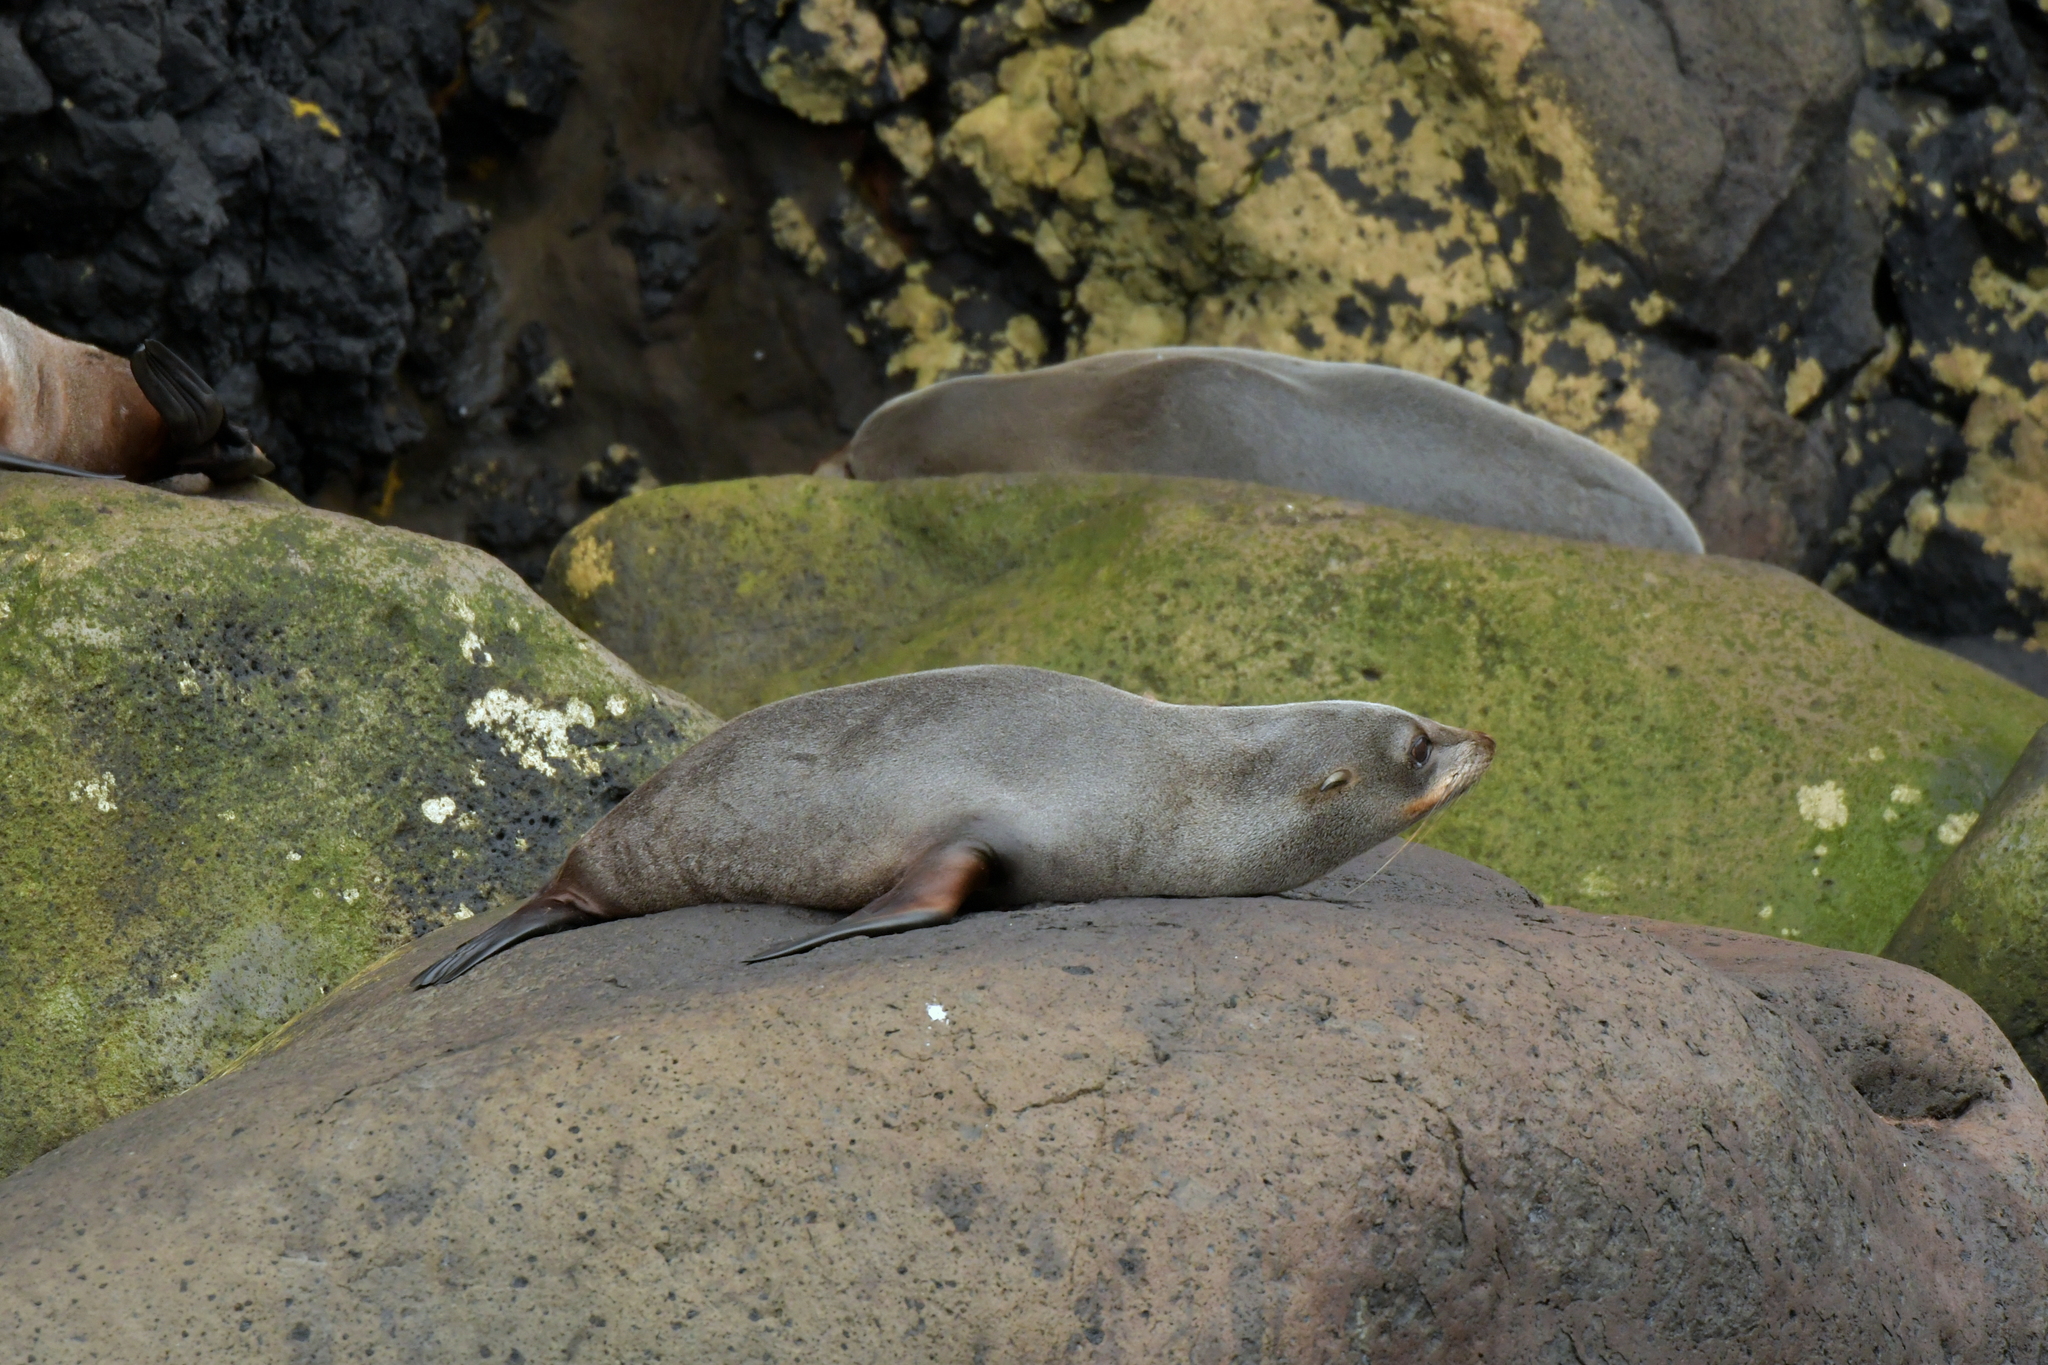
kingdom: Animalia
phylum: Chordata
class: Mammalia
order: Carnivora
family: Otariidae
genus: Arctocephalus
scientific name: Arctocephalus forsteri
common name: New zealand fur seal
